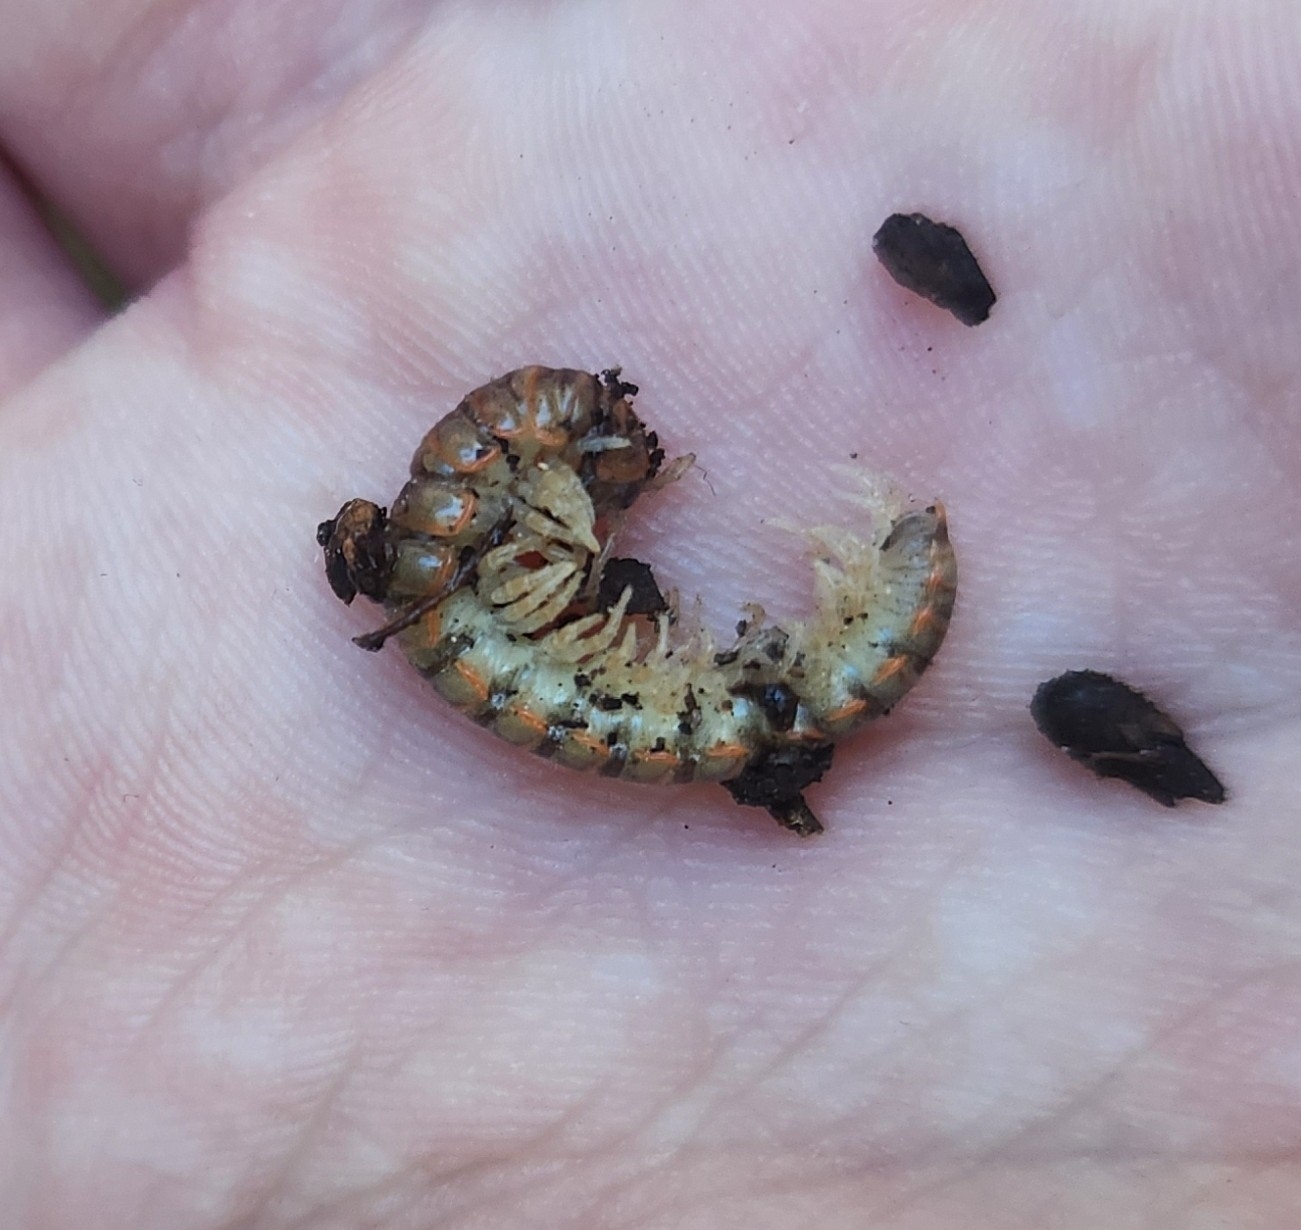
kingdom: Animalia
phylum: Arthropoda
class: Diplopoda
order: Polydesmida
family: Xystodesmidae
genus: Eurymerodesmus
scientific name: Eurymerodesmus impurus
